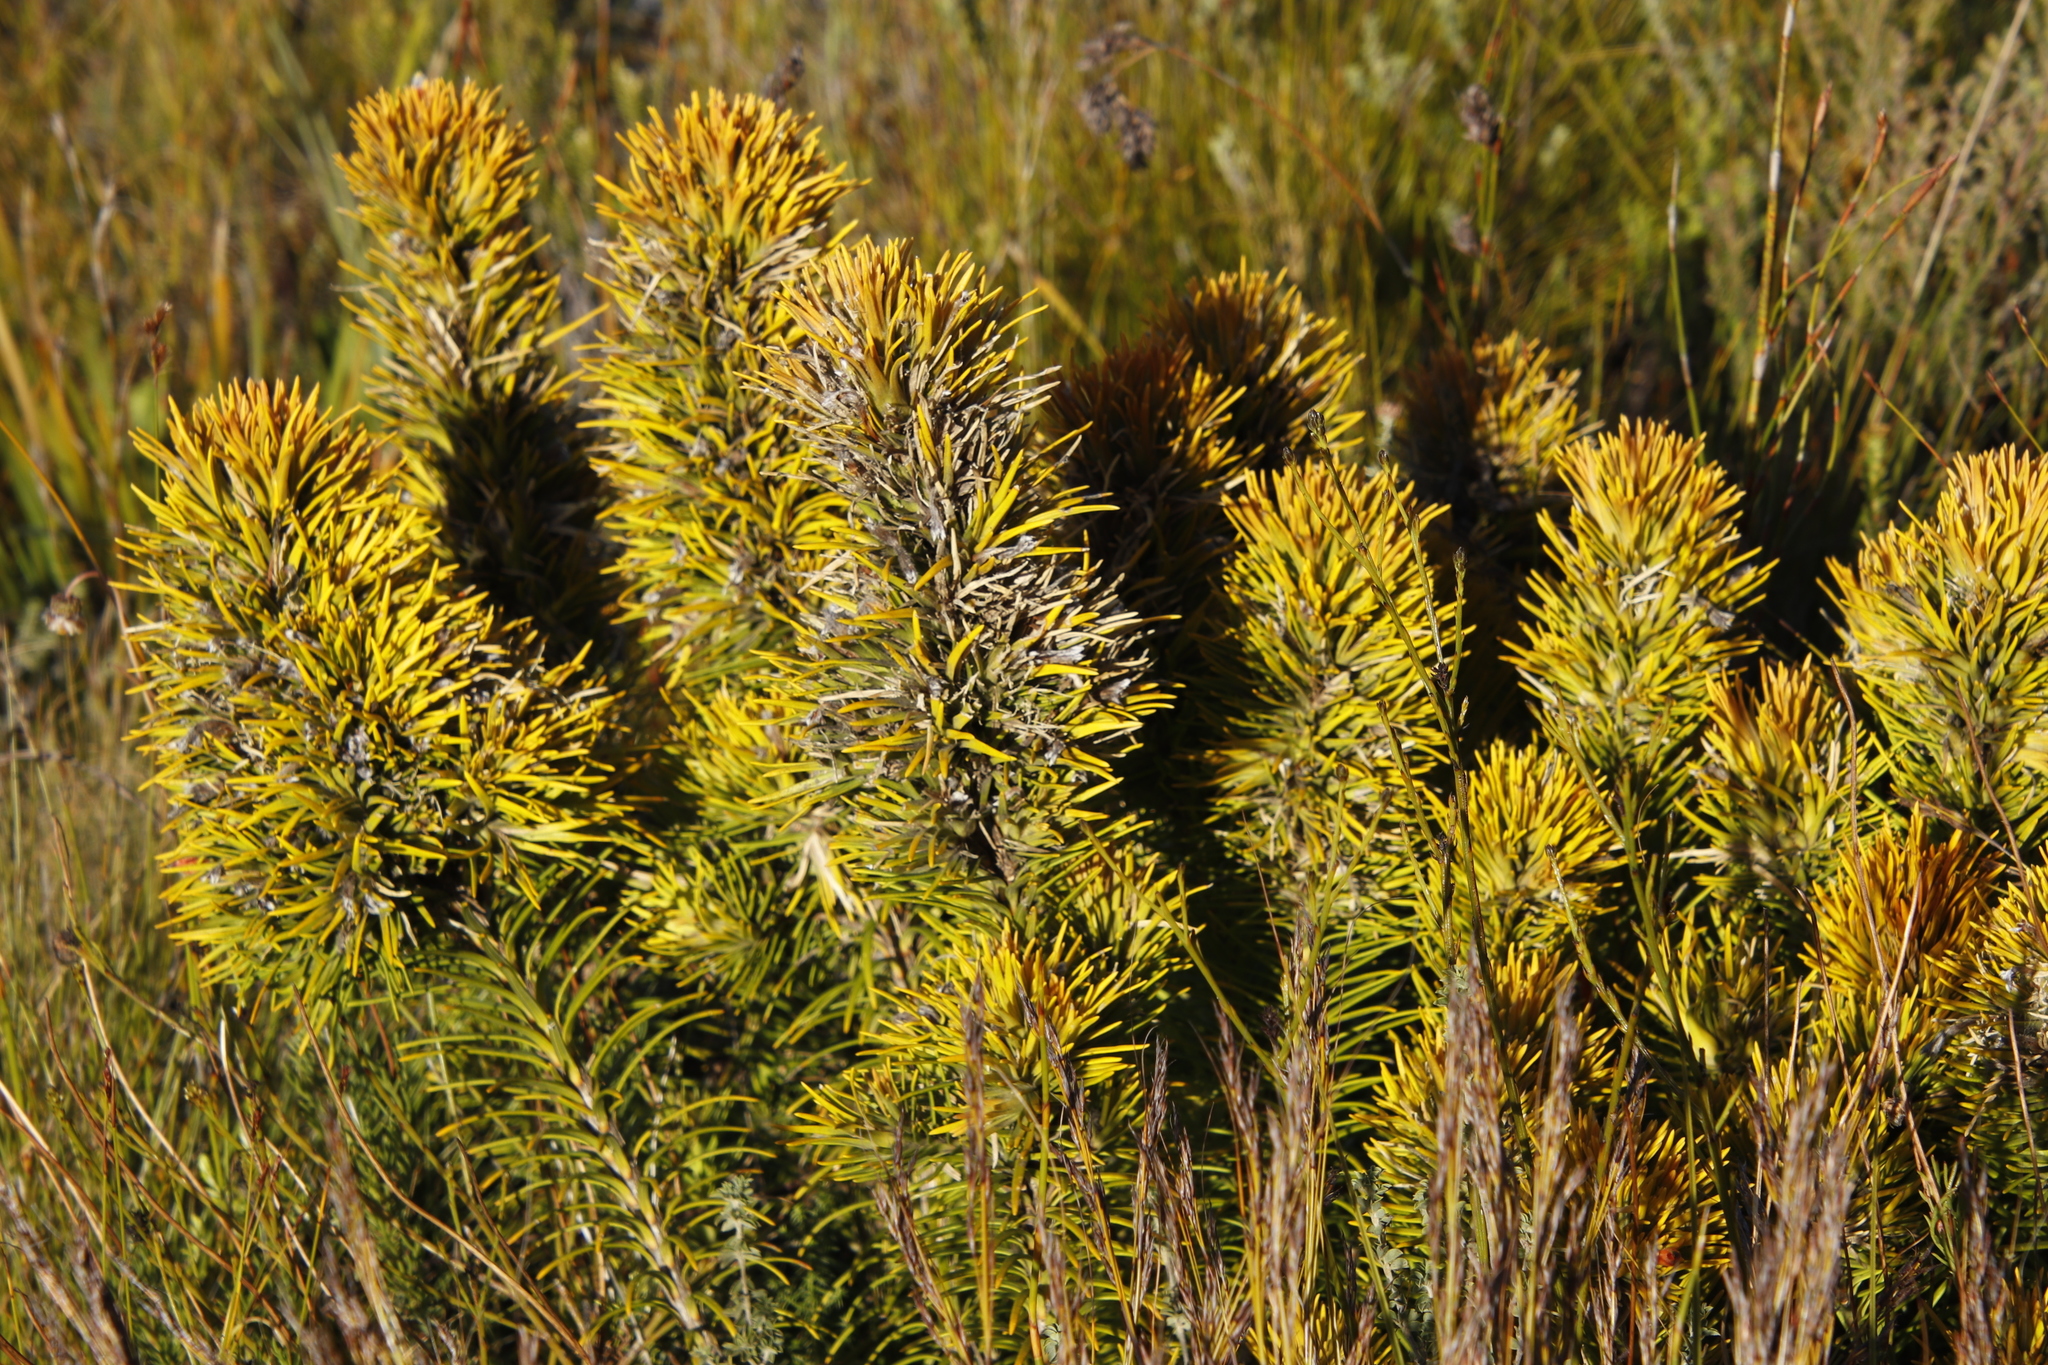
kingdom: Plantae
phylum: Tracheophyta
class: Magnoliopsida
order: Lamiales
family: Stilbaceae
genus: Retzia
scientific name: Retzia capensis
